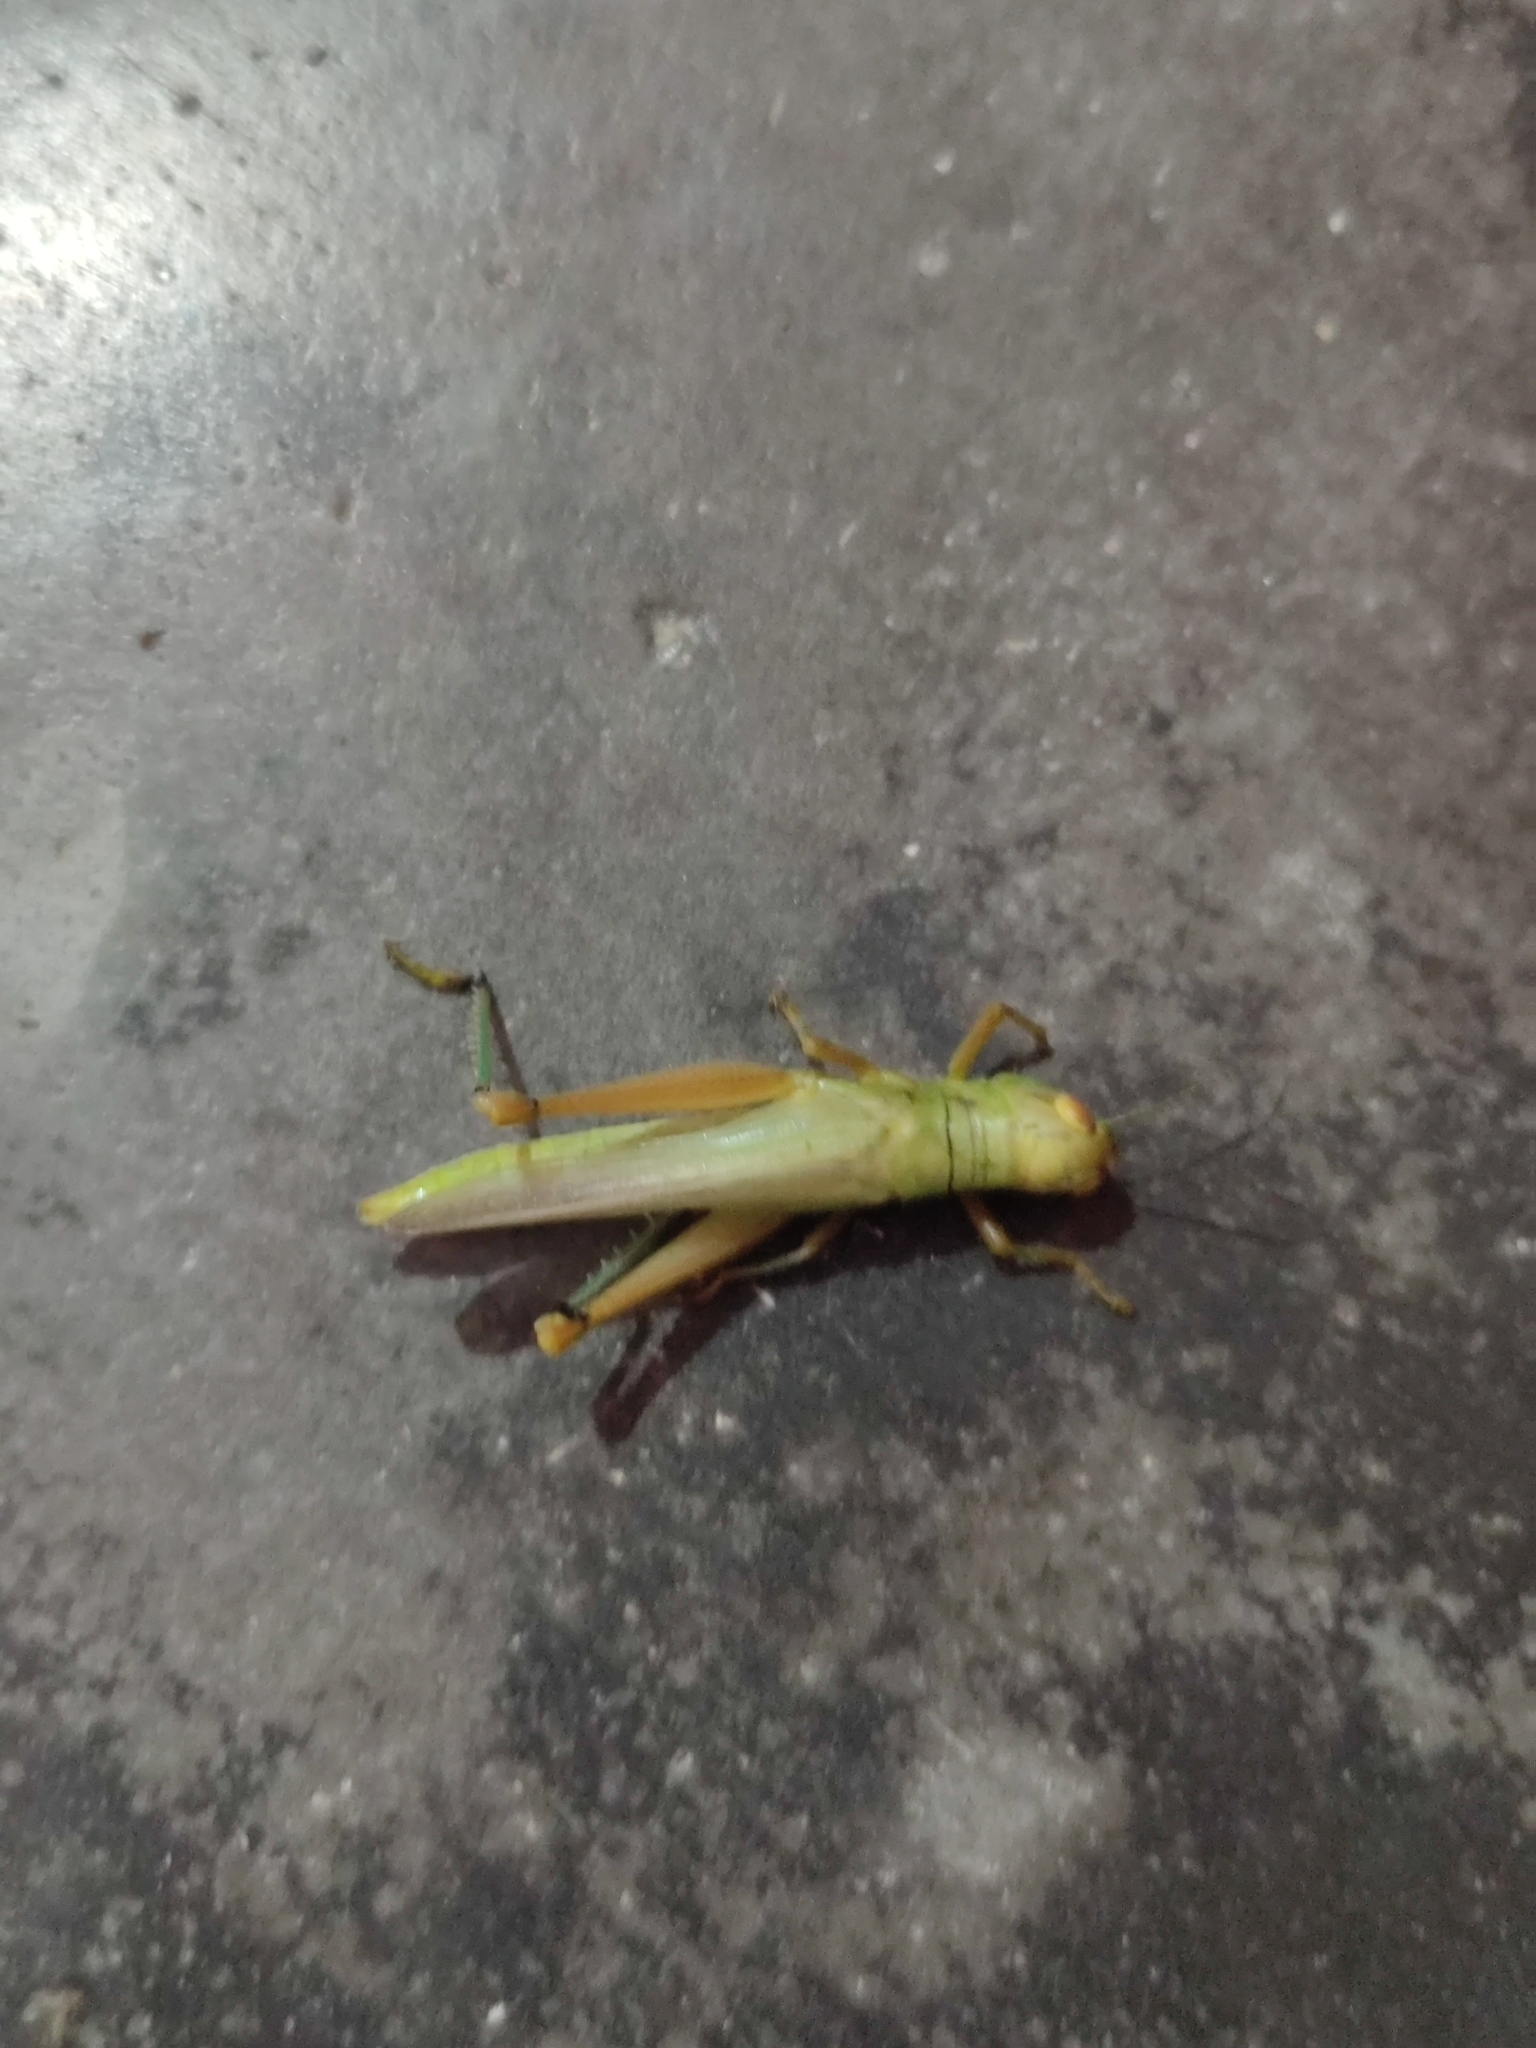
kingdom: Animalia
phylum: Arthropoda
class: Insecta
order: Orthoptera
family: Acrididae
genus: Hieroglyphus
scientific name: Hieroglyphus annulicornis
